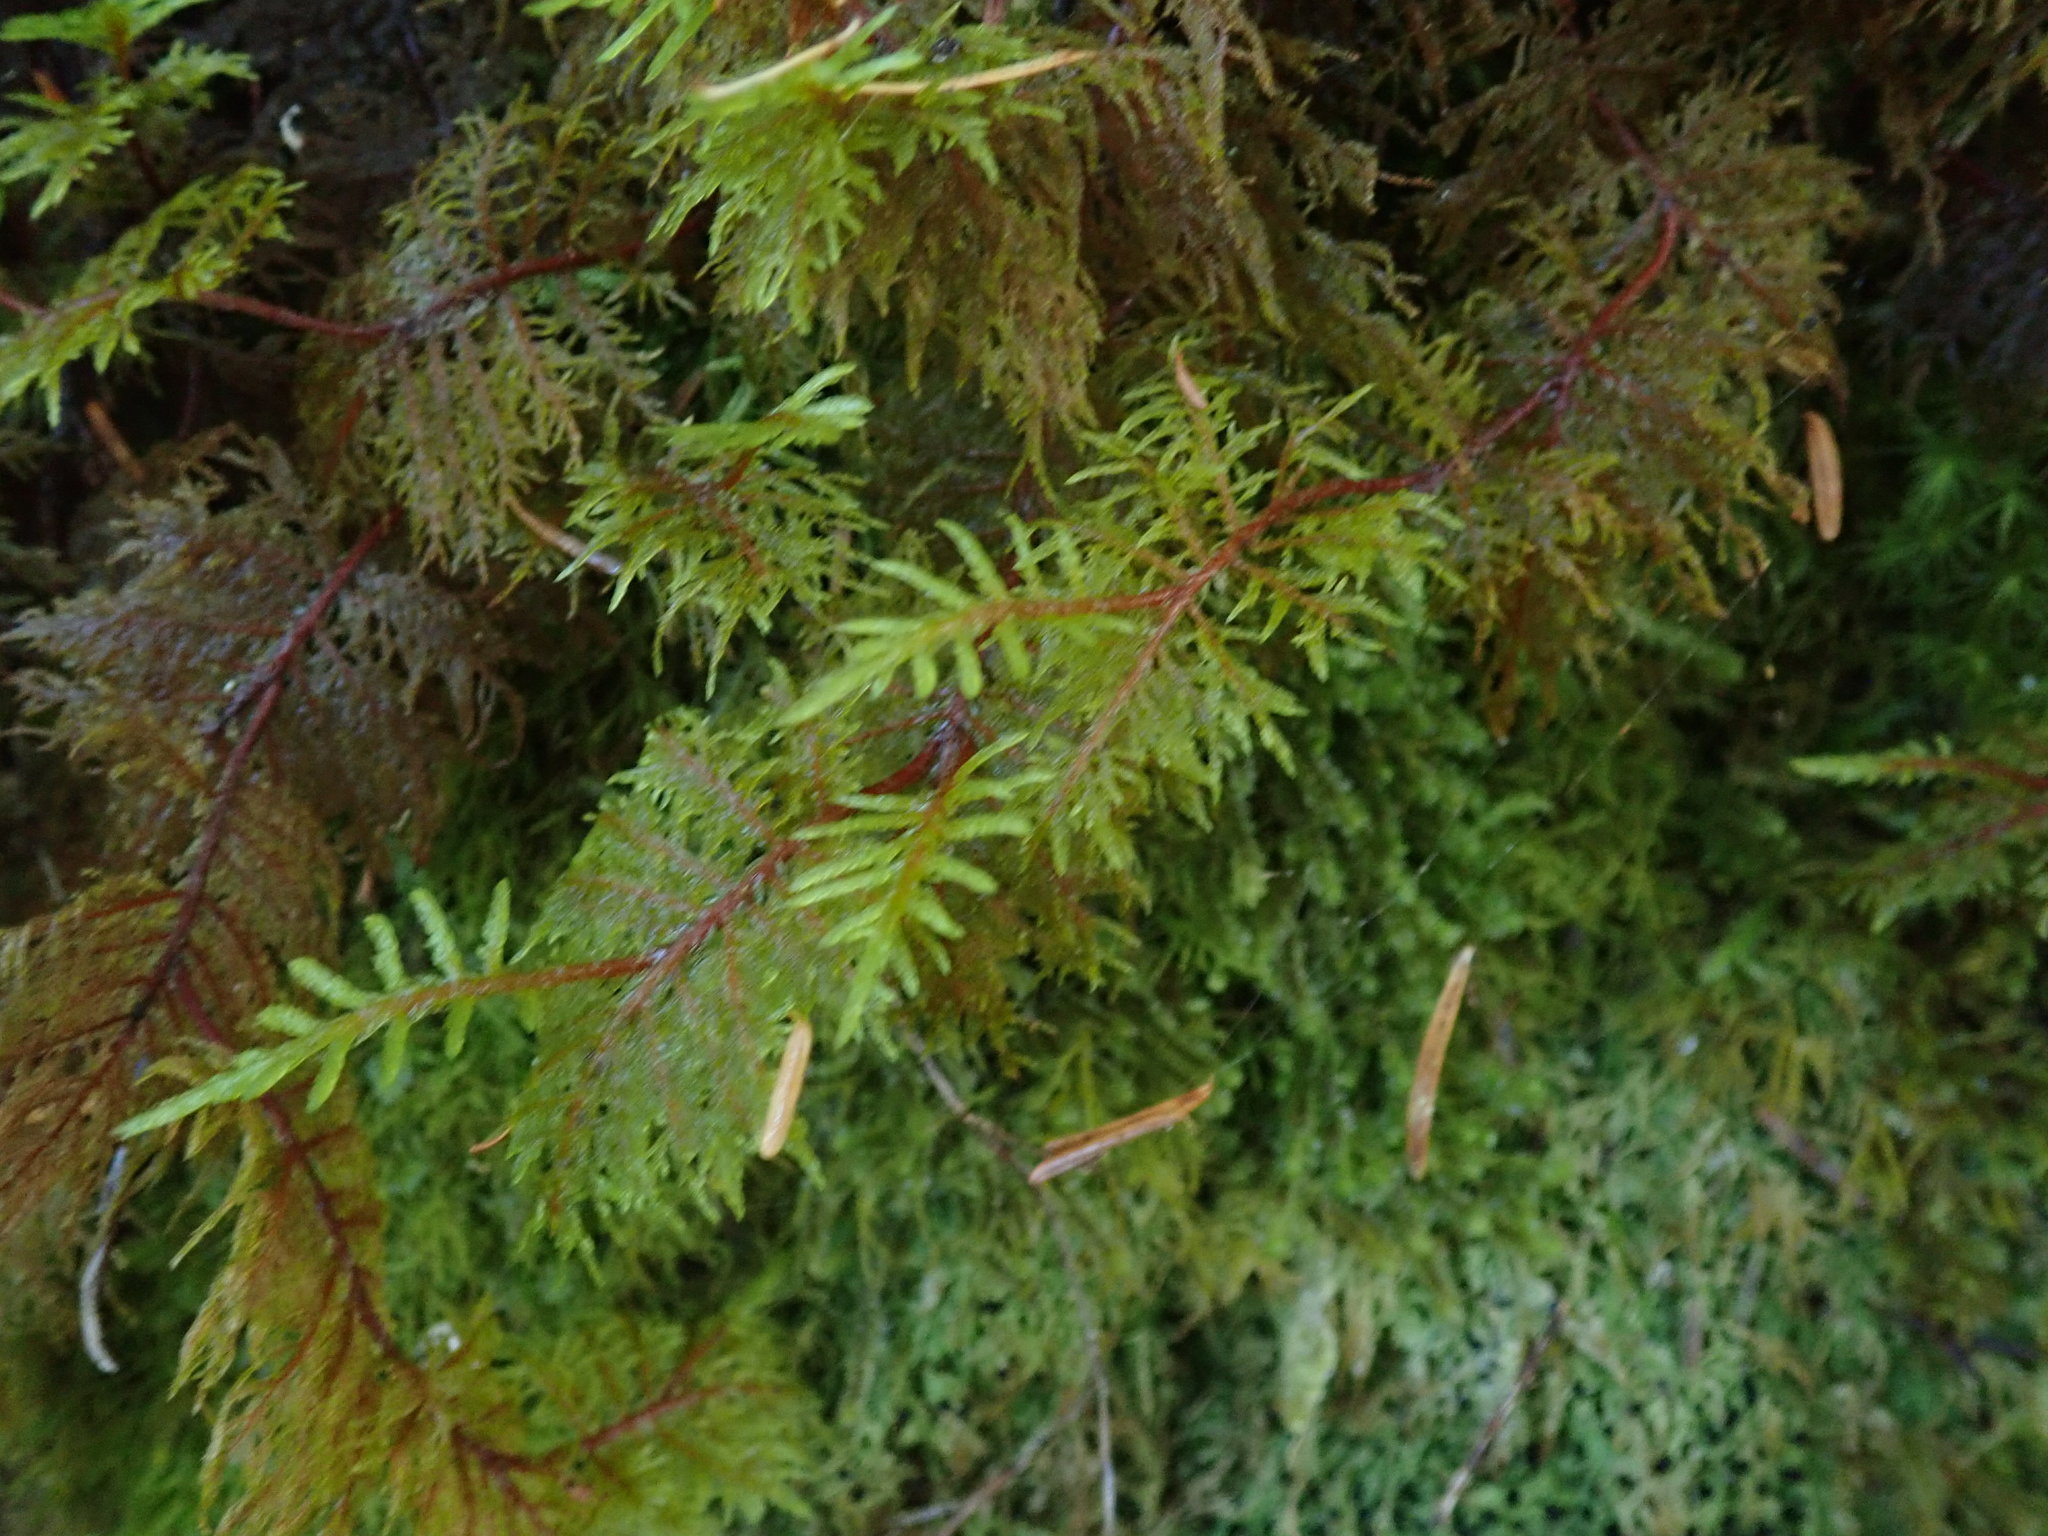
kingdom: Plantae
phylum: Bryophyta
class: Bryopsida
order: Hypnales
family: Hylocomiaceae
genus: Hylocomium
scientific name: Hylocomium splendens
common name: Stairstep moss
